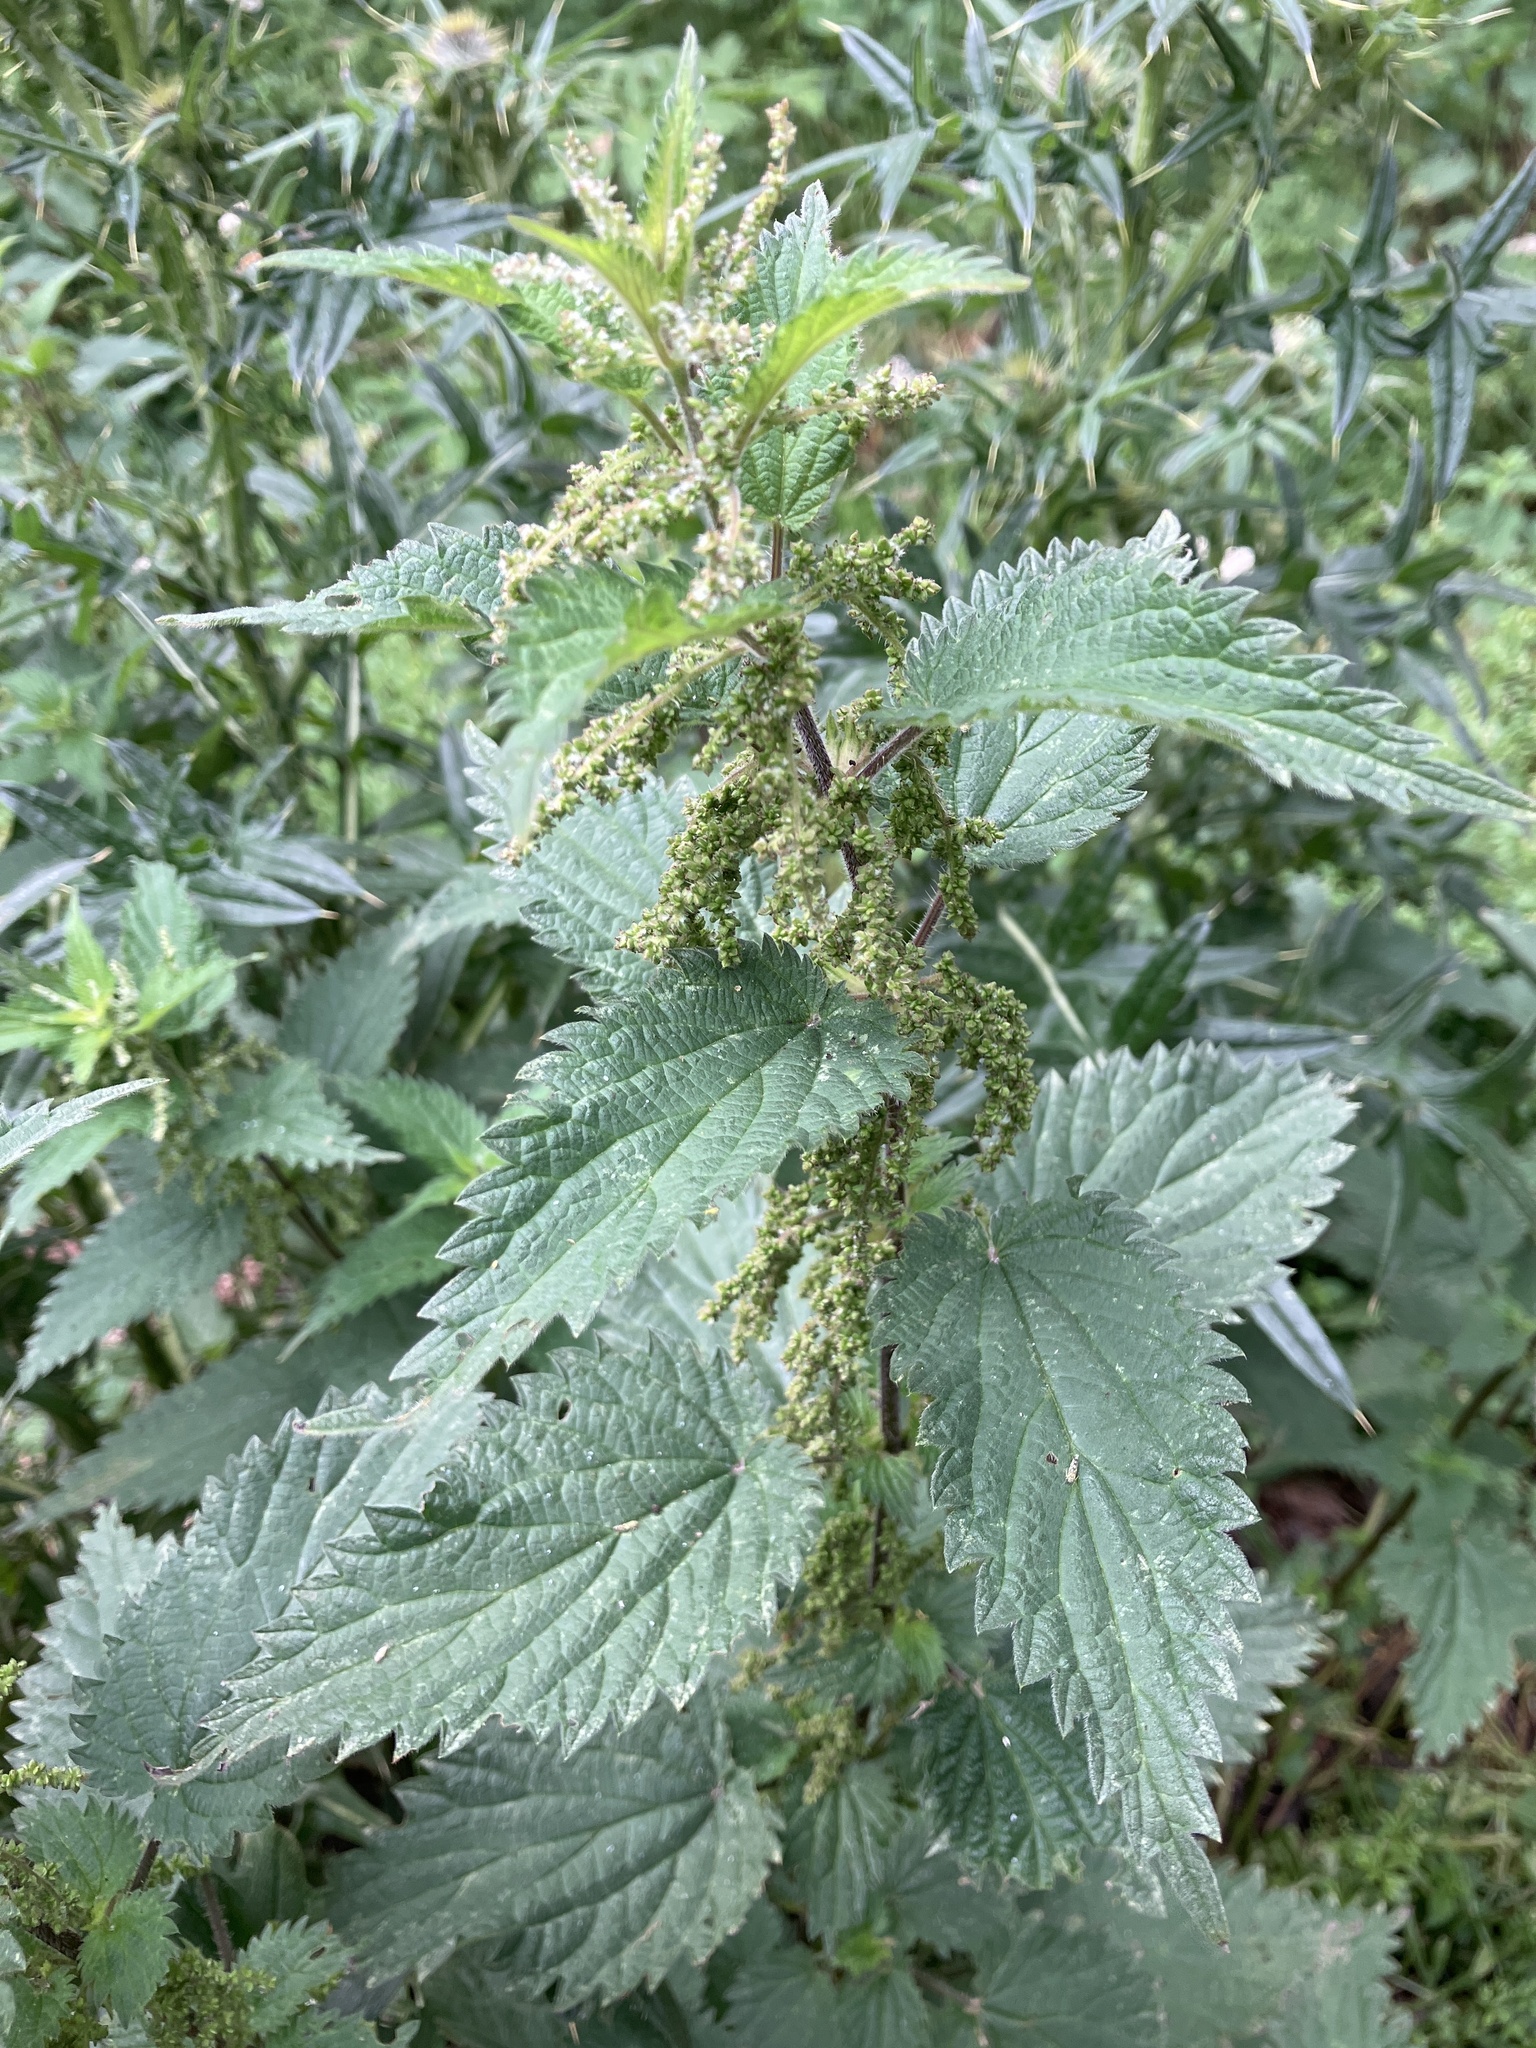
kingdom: Plantae
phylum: Tracheophyta
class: Magnoliopsida
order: Rosales
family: Urticaceae
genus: Urtica
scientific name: Urtica dioica
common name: Common nettle
